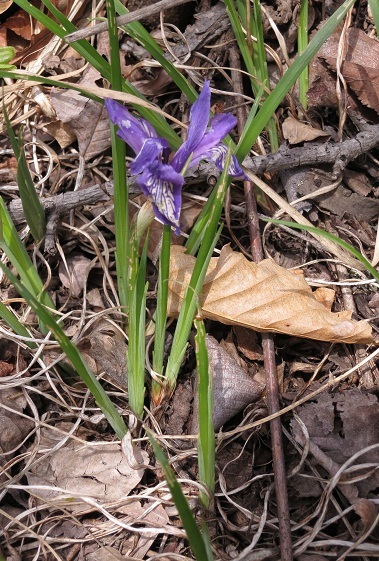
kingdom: Plantae
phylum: Tracheophyta
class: Liliopsida
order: Asparagales
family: Iridaceae
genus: Iris
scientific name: Iris uniflora
